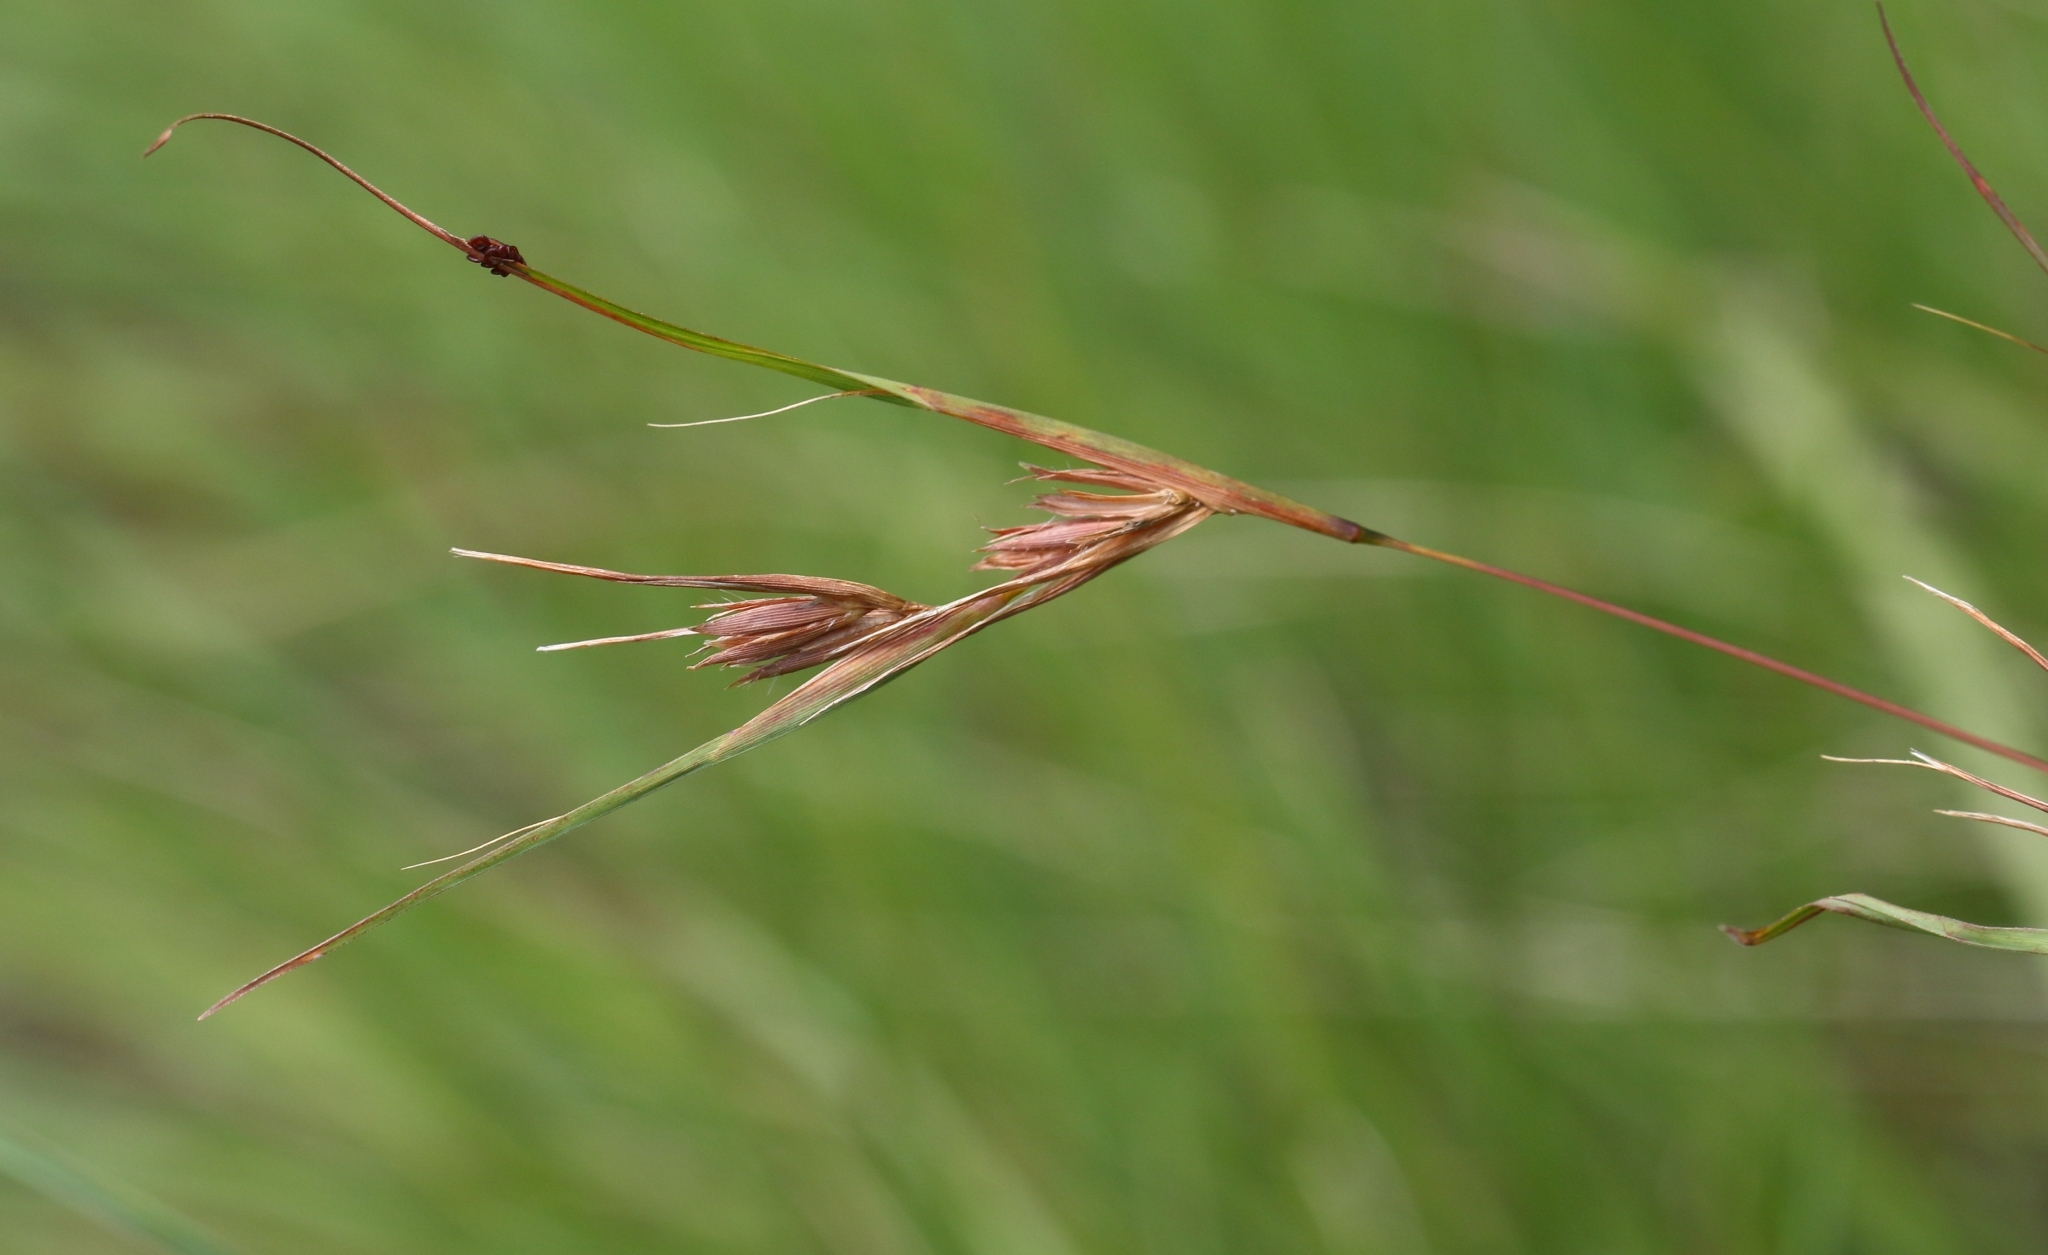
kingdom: Plantae
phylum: Tracheophyta
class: Liliopsida
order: Poales
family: Poaceae
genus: Themeda
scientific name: Themeda triandra
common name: Kangaroo grass
